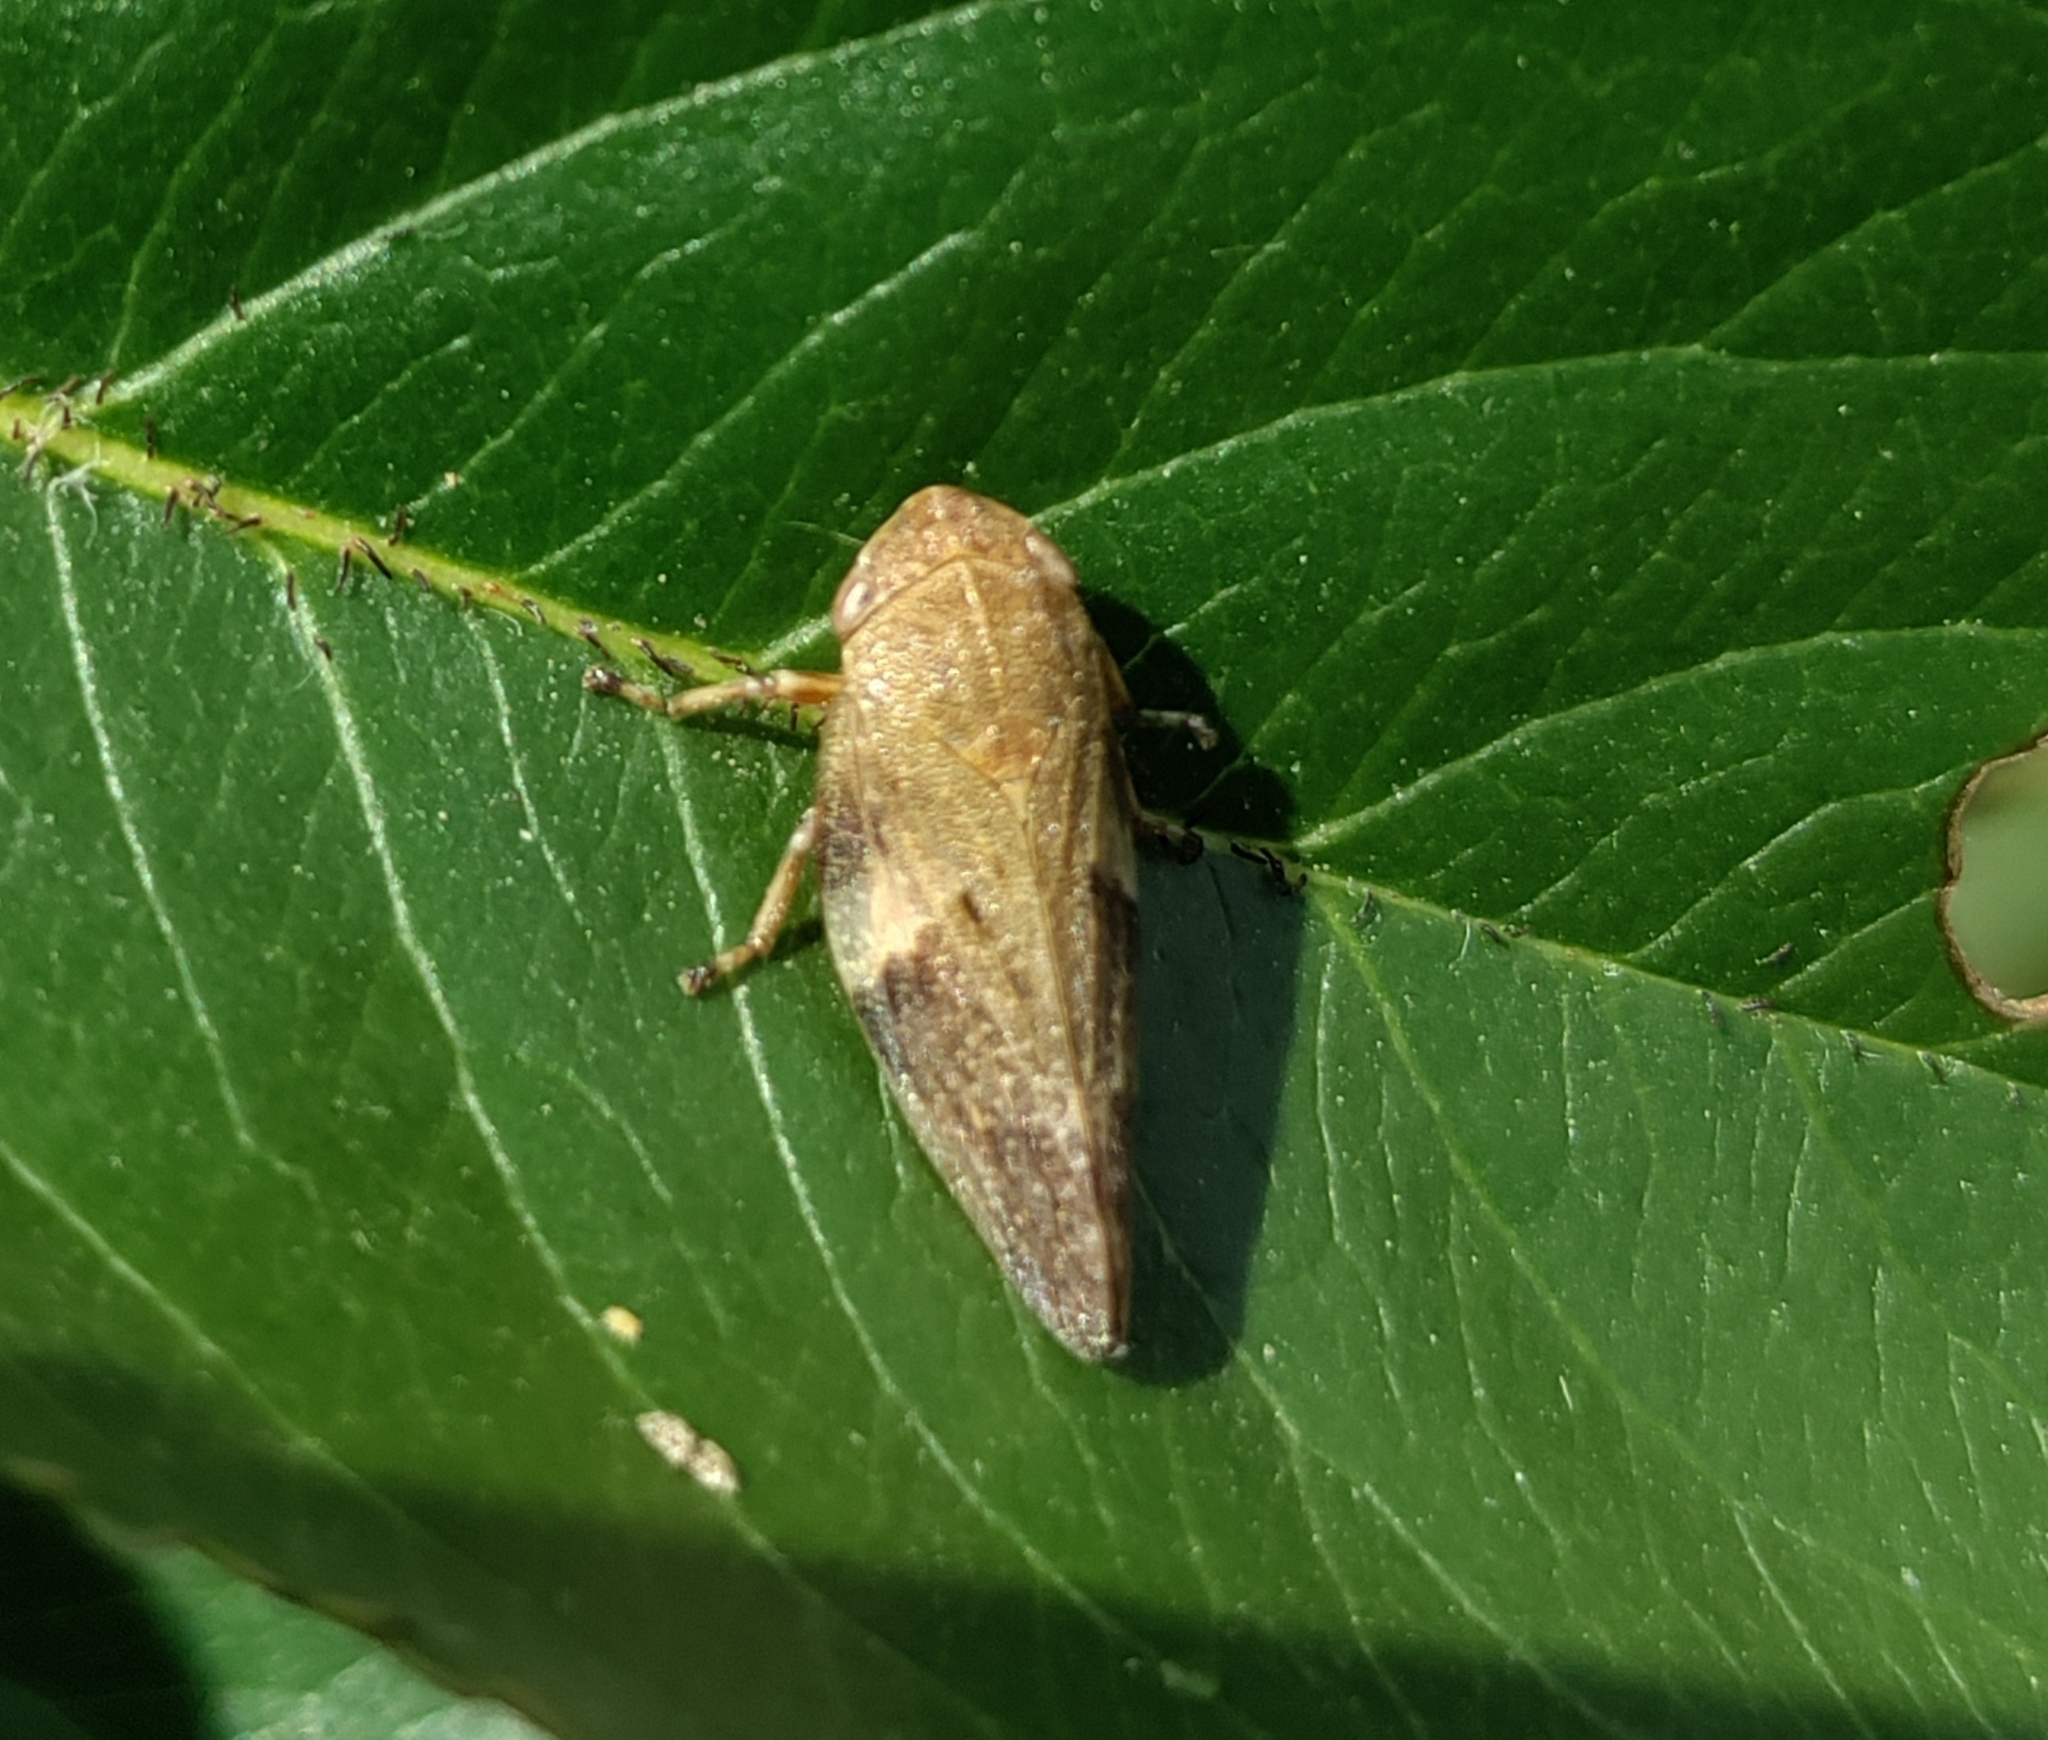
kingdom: Animalia
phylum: Arthropoda
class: Insecta
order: Hemiptera
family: Aphrophoridae
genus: Aphrophora
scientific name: Aphrophora alni
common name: European alder spittlebug
